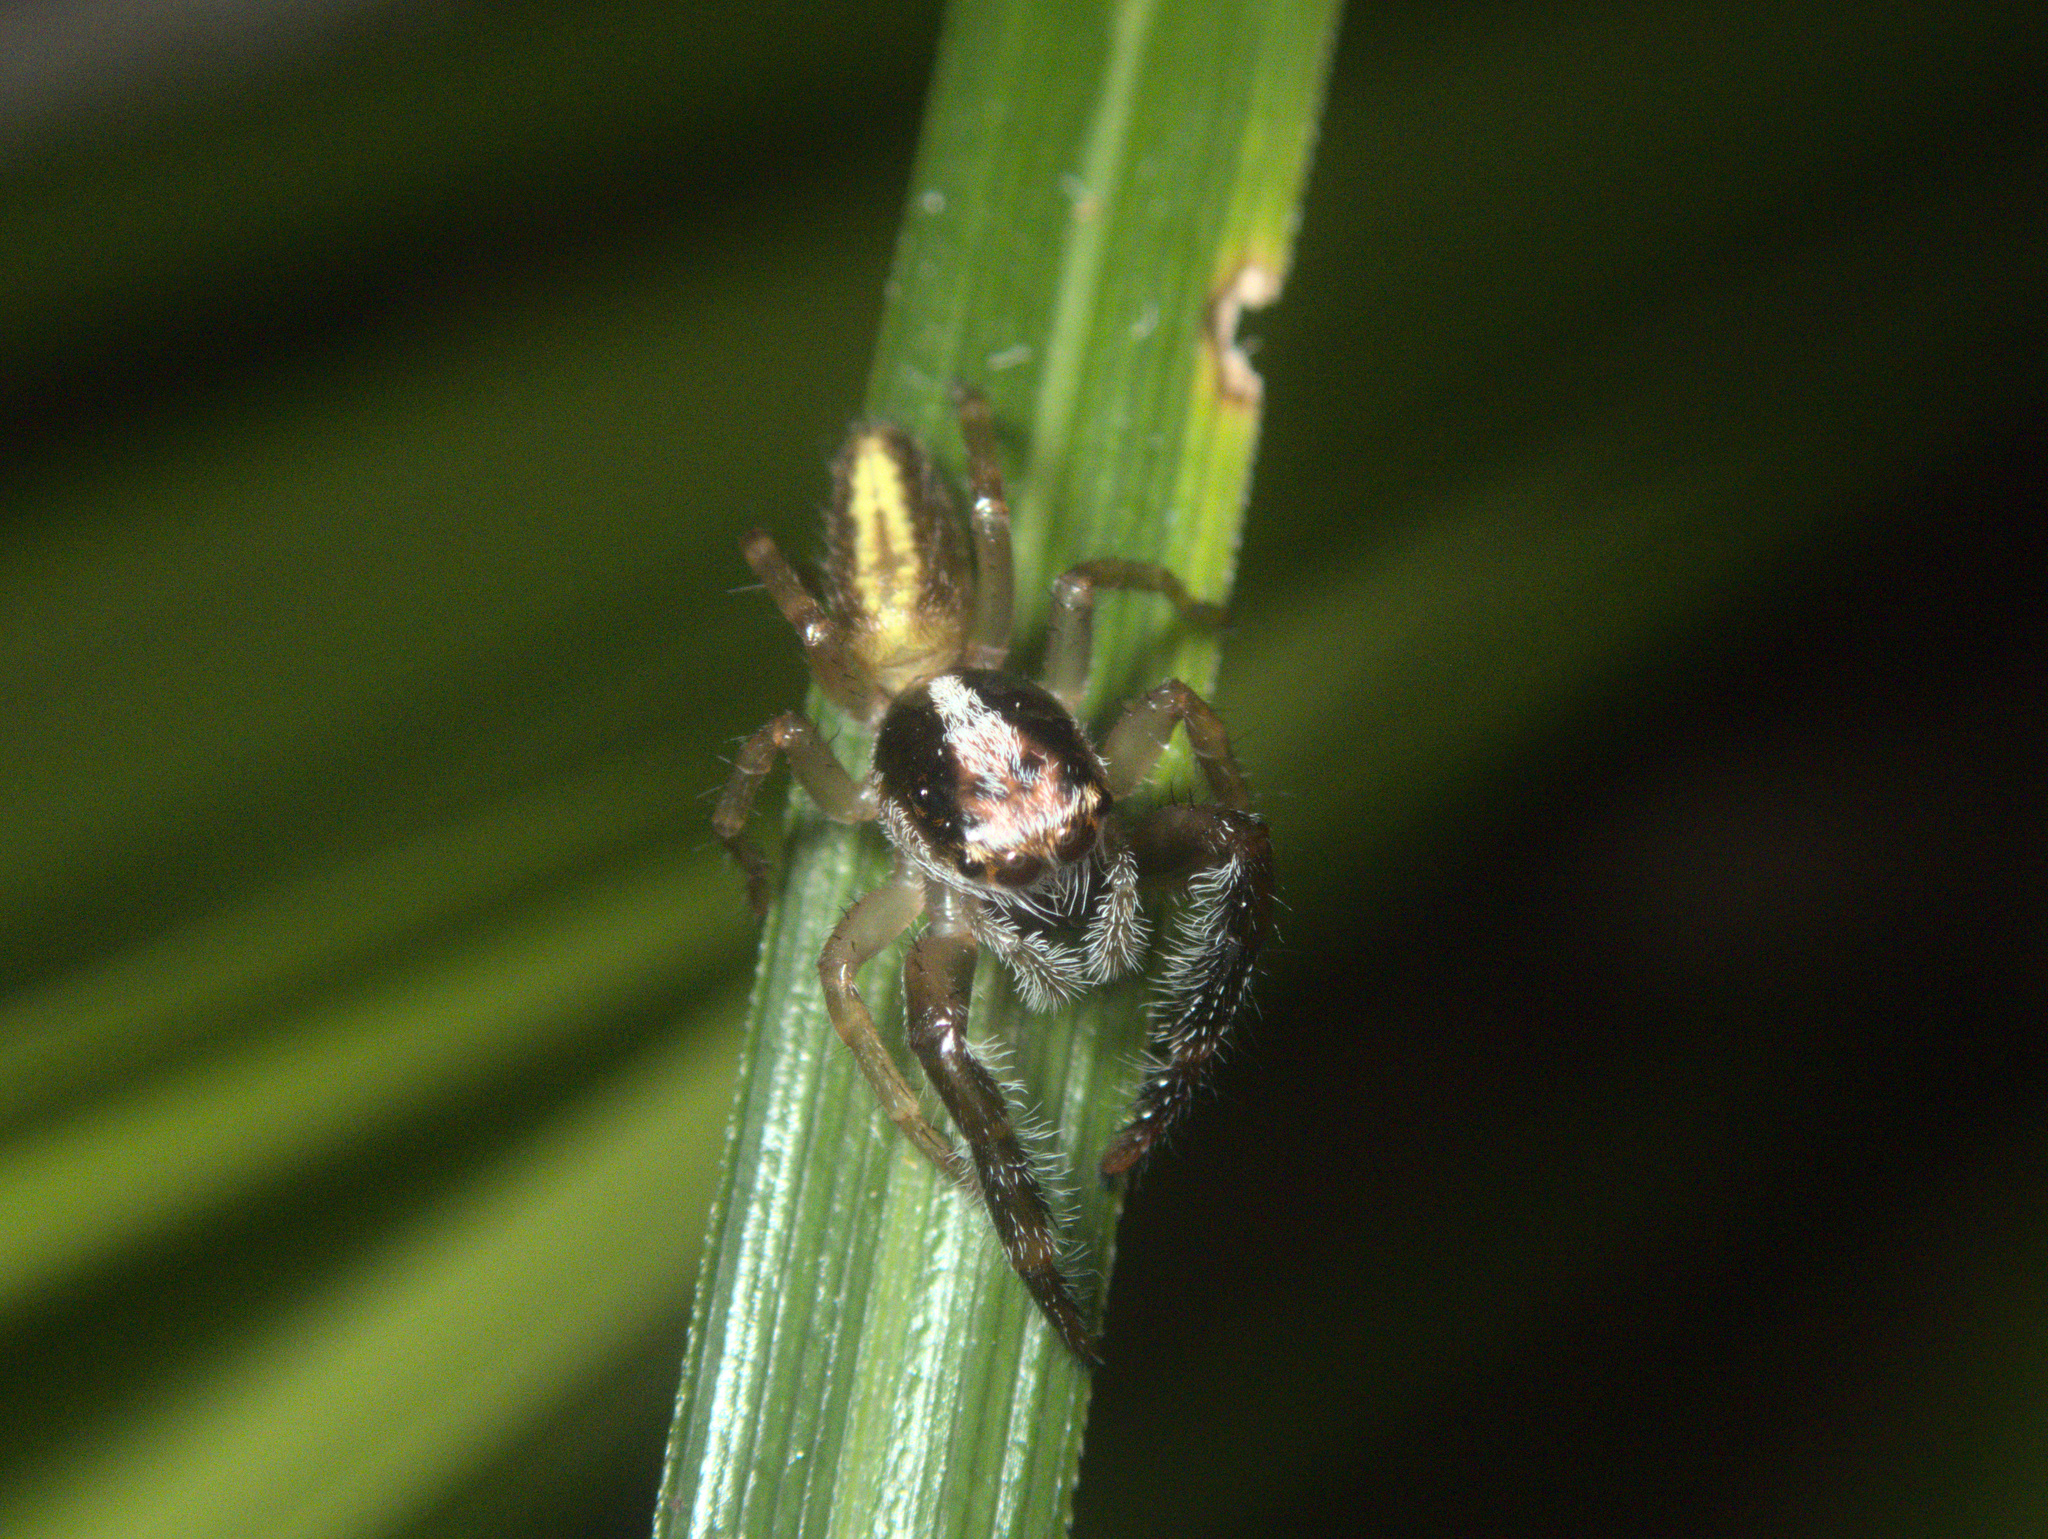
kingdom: Animalia
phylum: Arthropoda
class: Arachnida
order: Araneae
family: Salticidae
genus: Trite
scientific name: Trite planiceps
